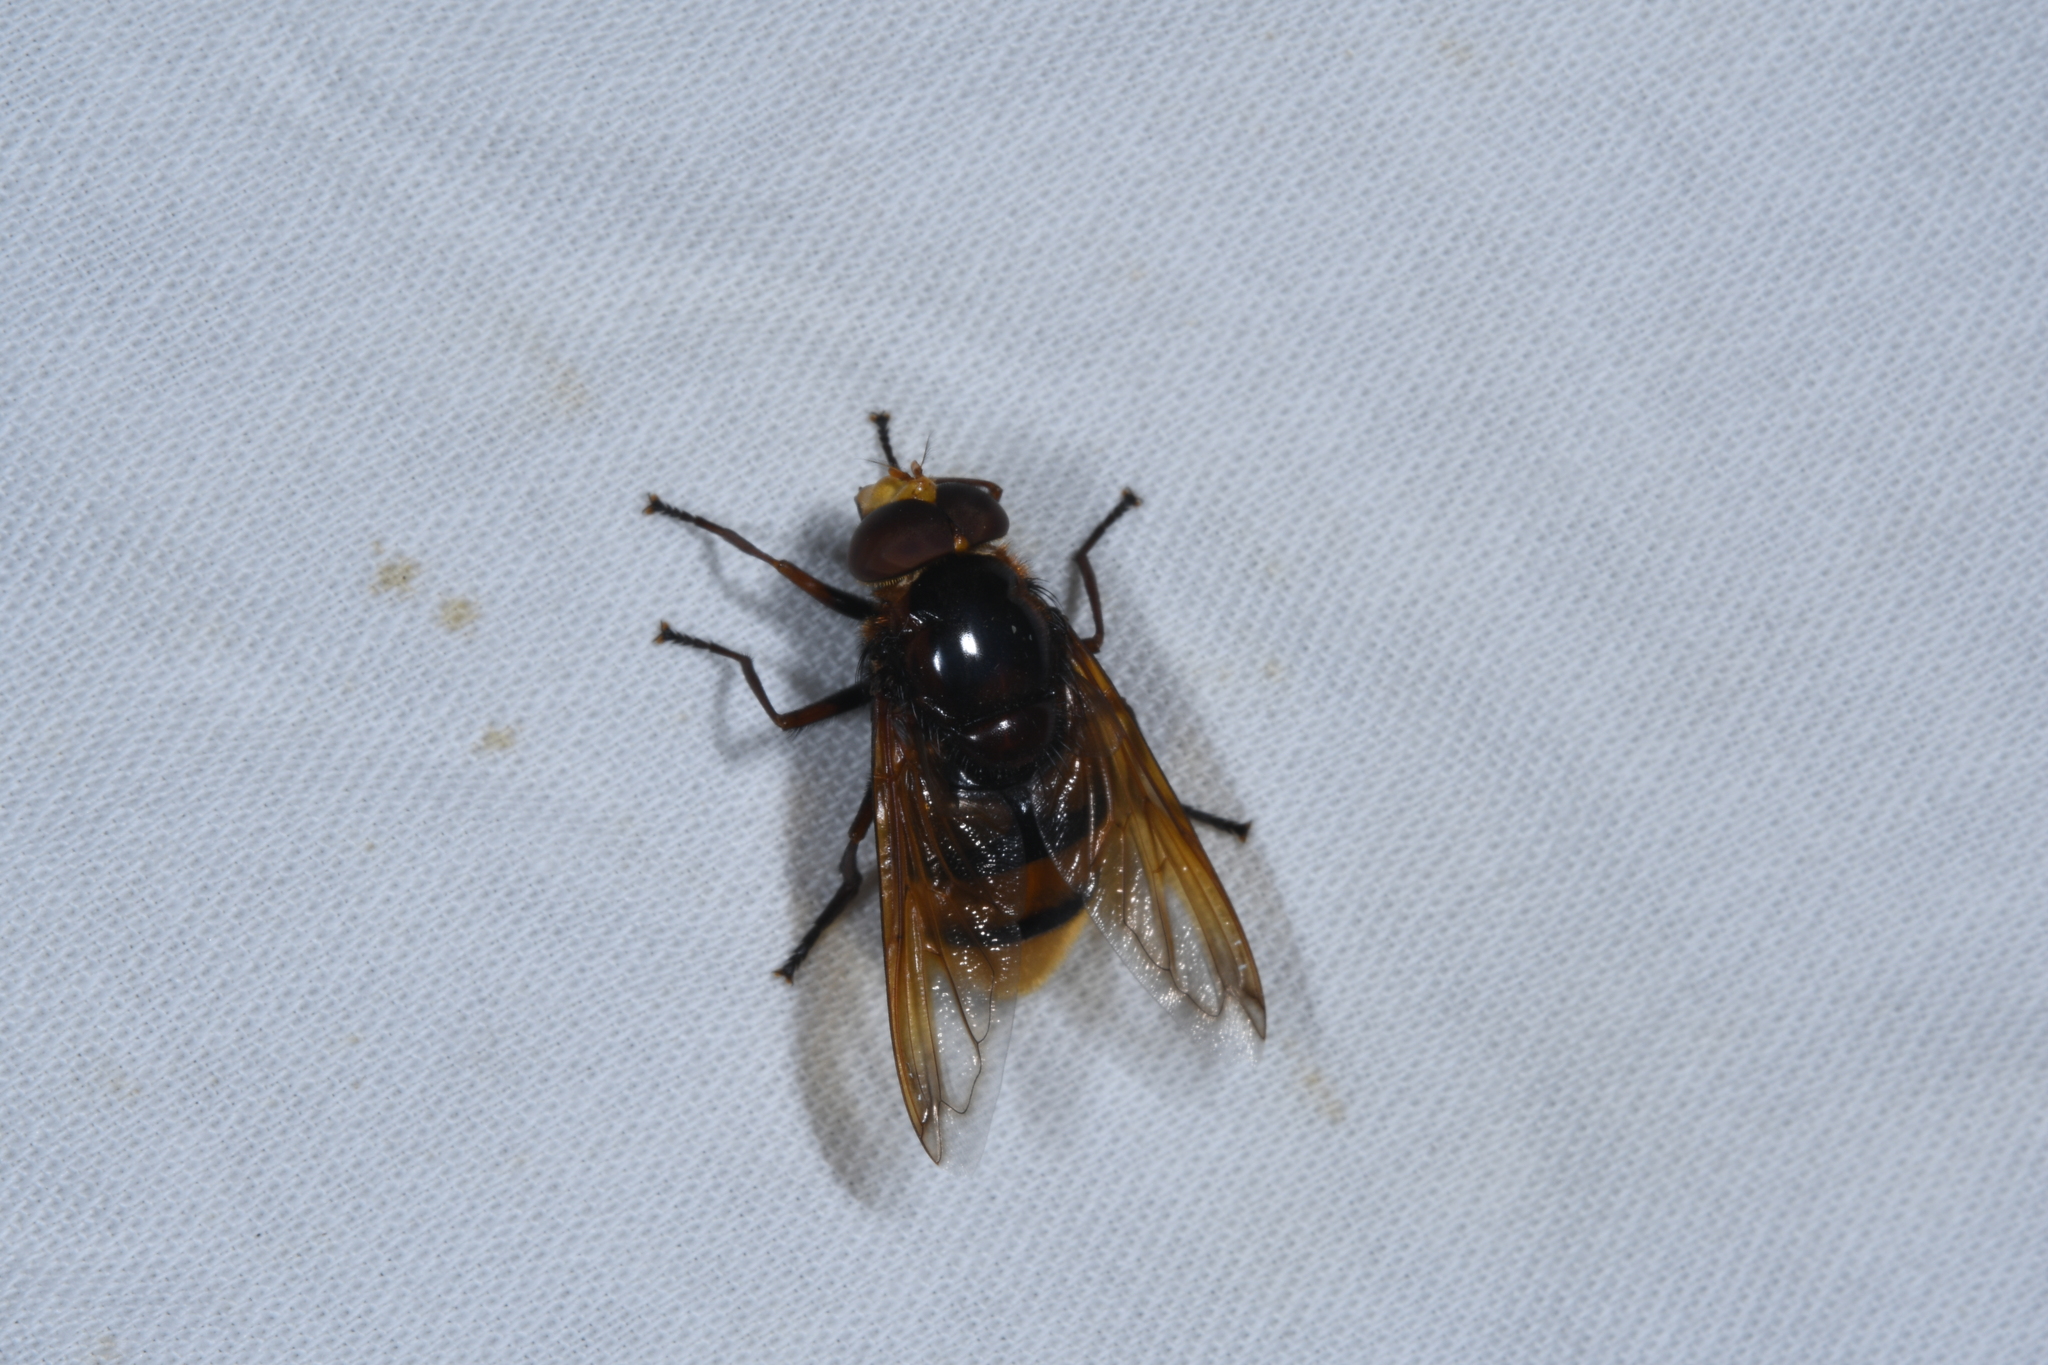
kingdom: Animalia
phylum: Arthropoda
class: Insecta
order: Diptera
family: Syrphidae
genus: Volucella
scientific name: Volucella zonaria
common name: Hornet hoverfly
